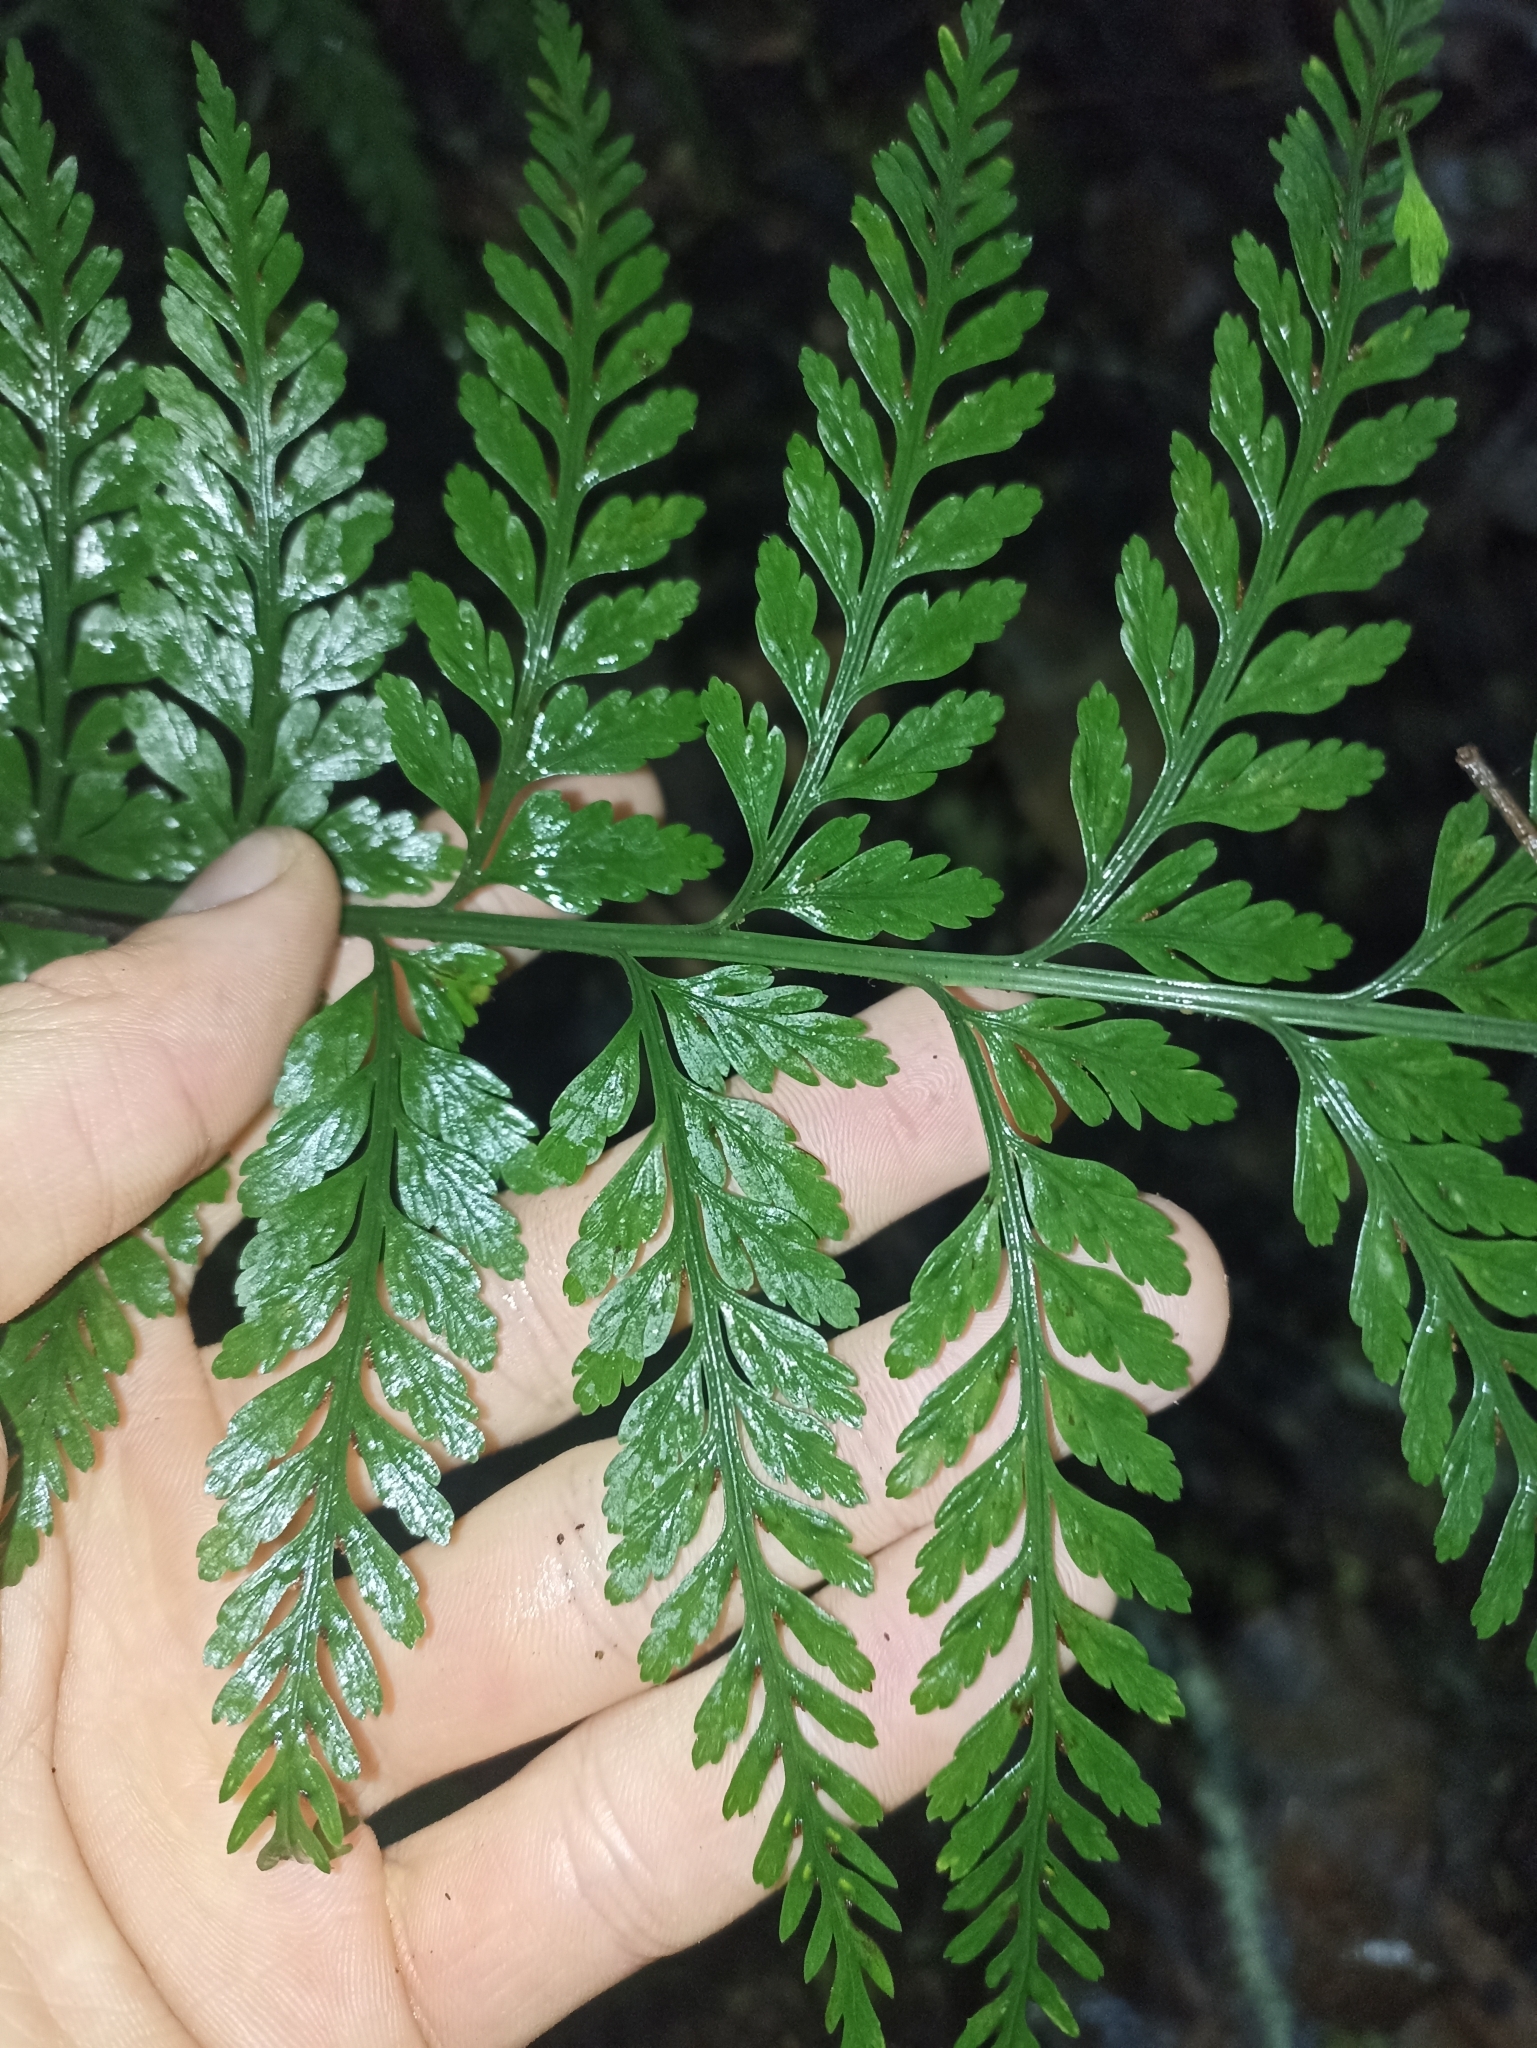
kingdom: Plantae
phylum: Tracheophyta
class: Polypodiopsida
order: Polypodiales
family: Aspleniaceae
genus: Asplenium
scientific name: Asplenium
